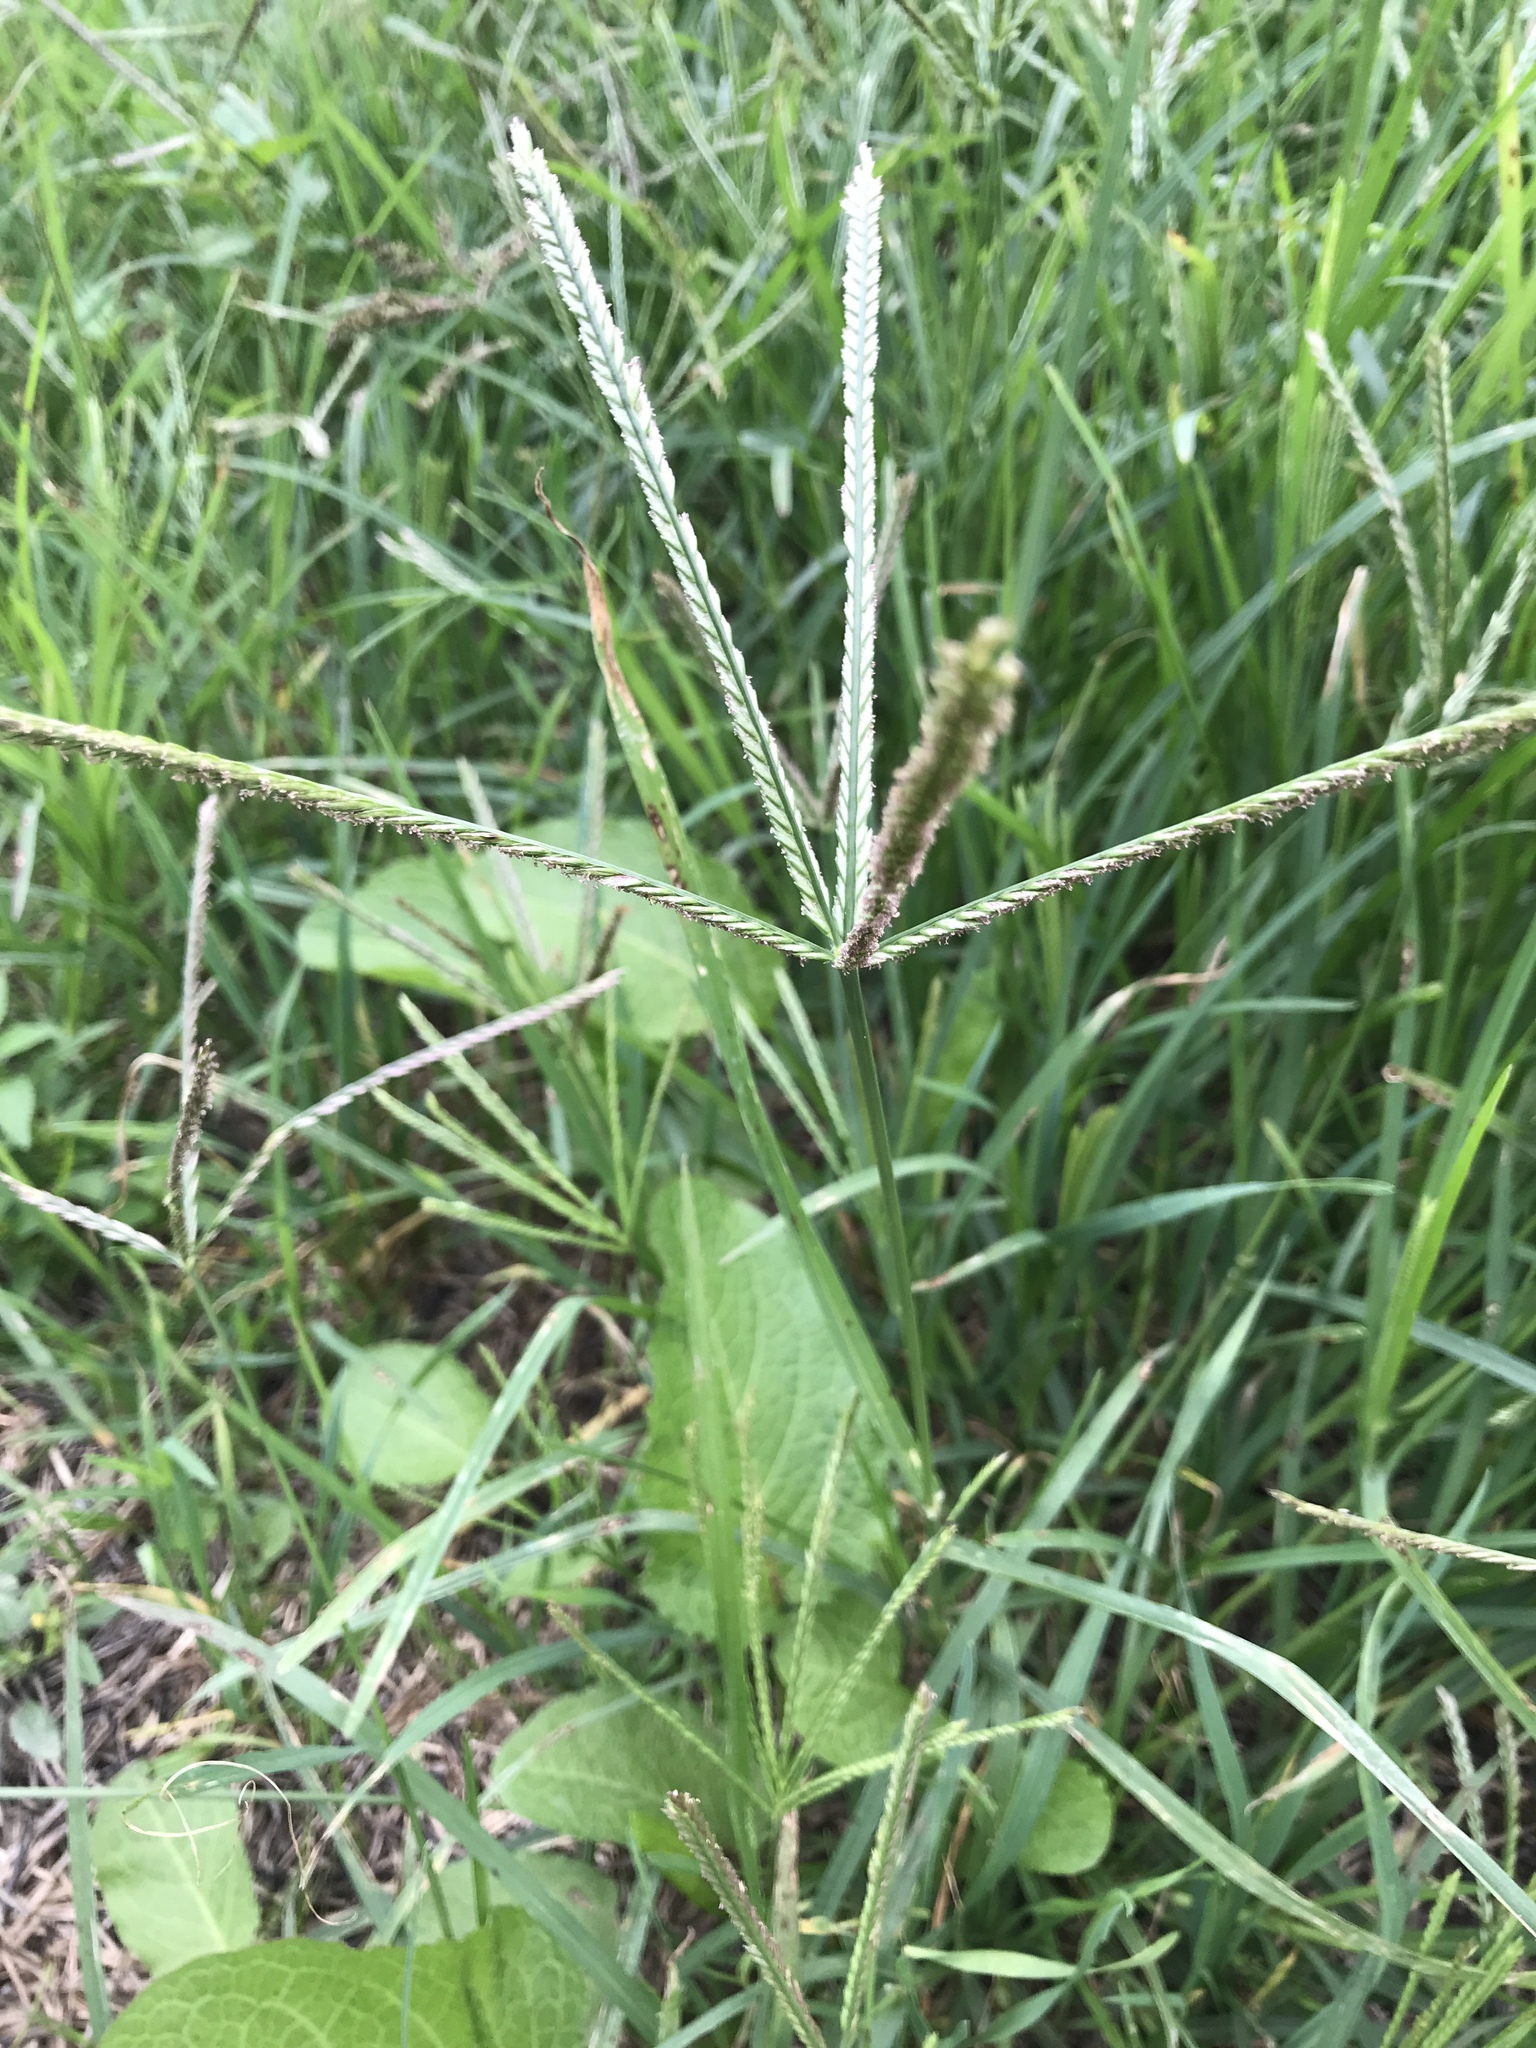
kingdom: Plantae
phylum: Tracheophyta
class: Liliopsida
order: Poales
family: Poaceae
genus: Eleusine
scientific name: Eleusine indica
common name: Yard-grass
